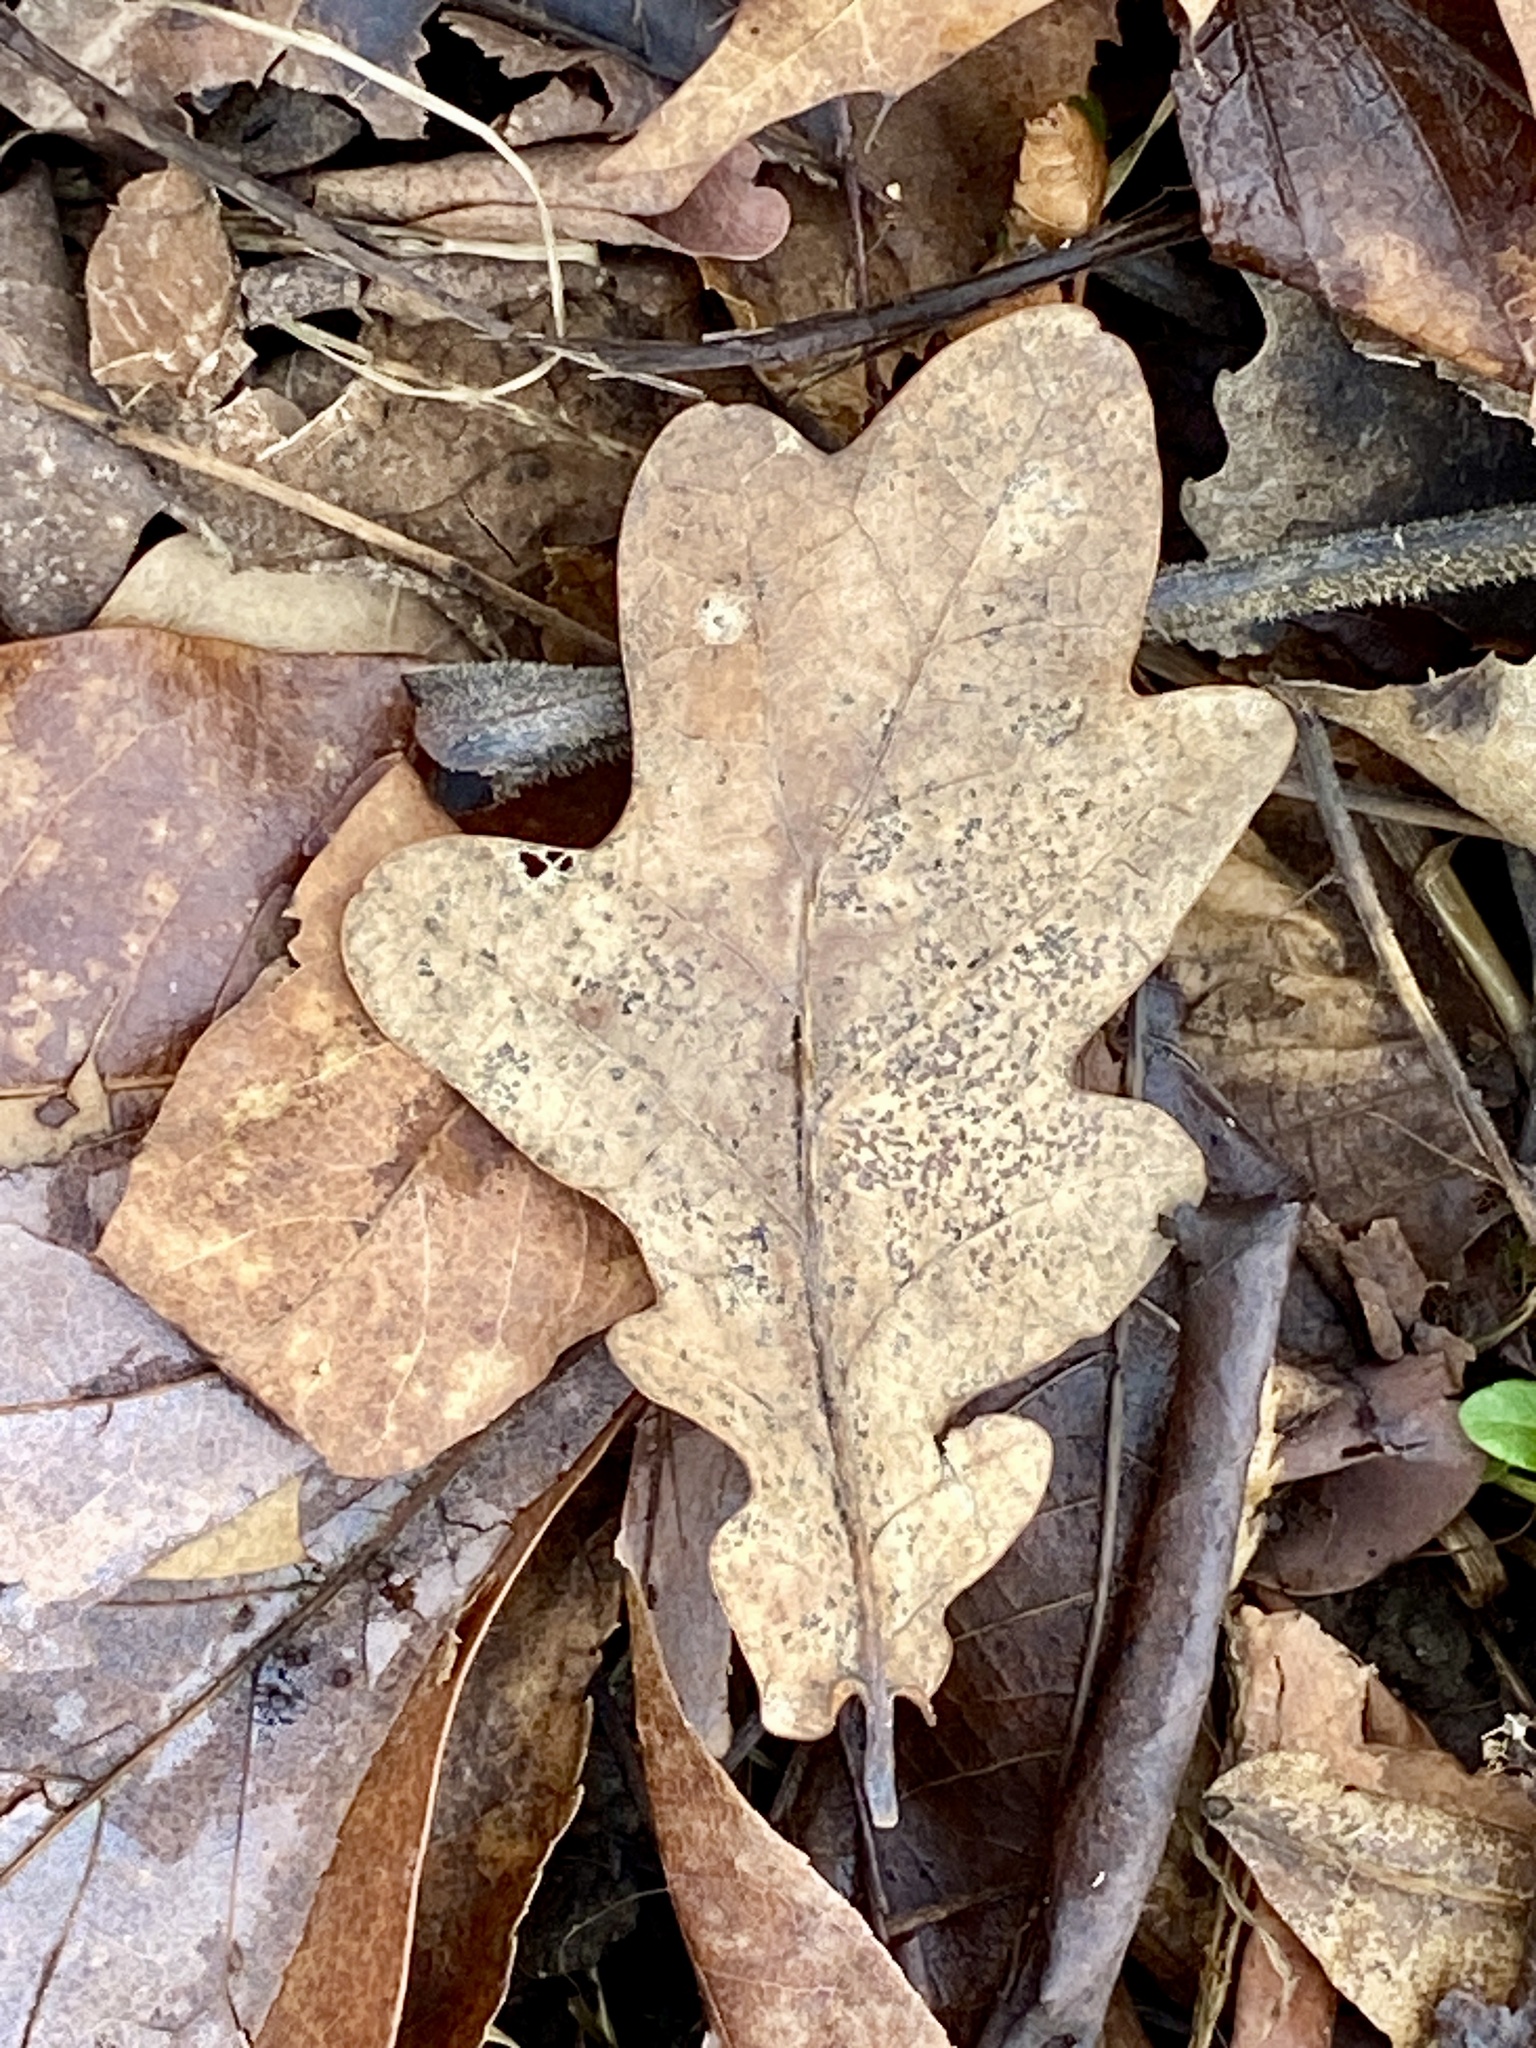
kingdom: Plantae
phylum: Tracheophyta
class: Magnoliopsida
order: Fagales
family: Fagaceae
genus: Quercus
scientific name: Quercus robur
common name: Pedunculate oak
